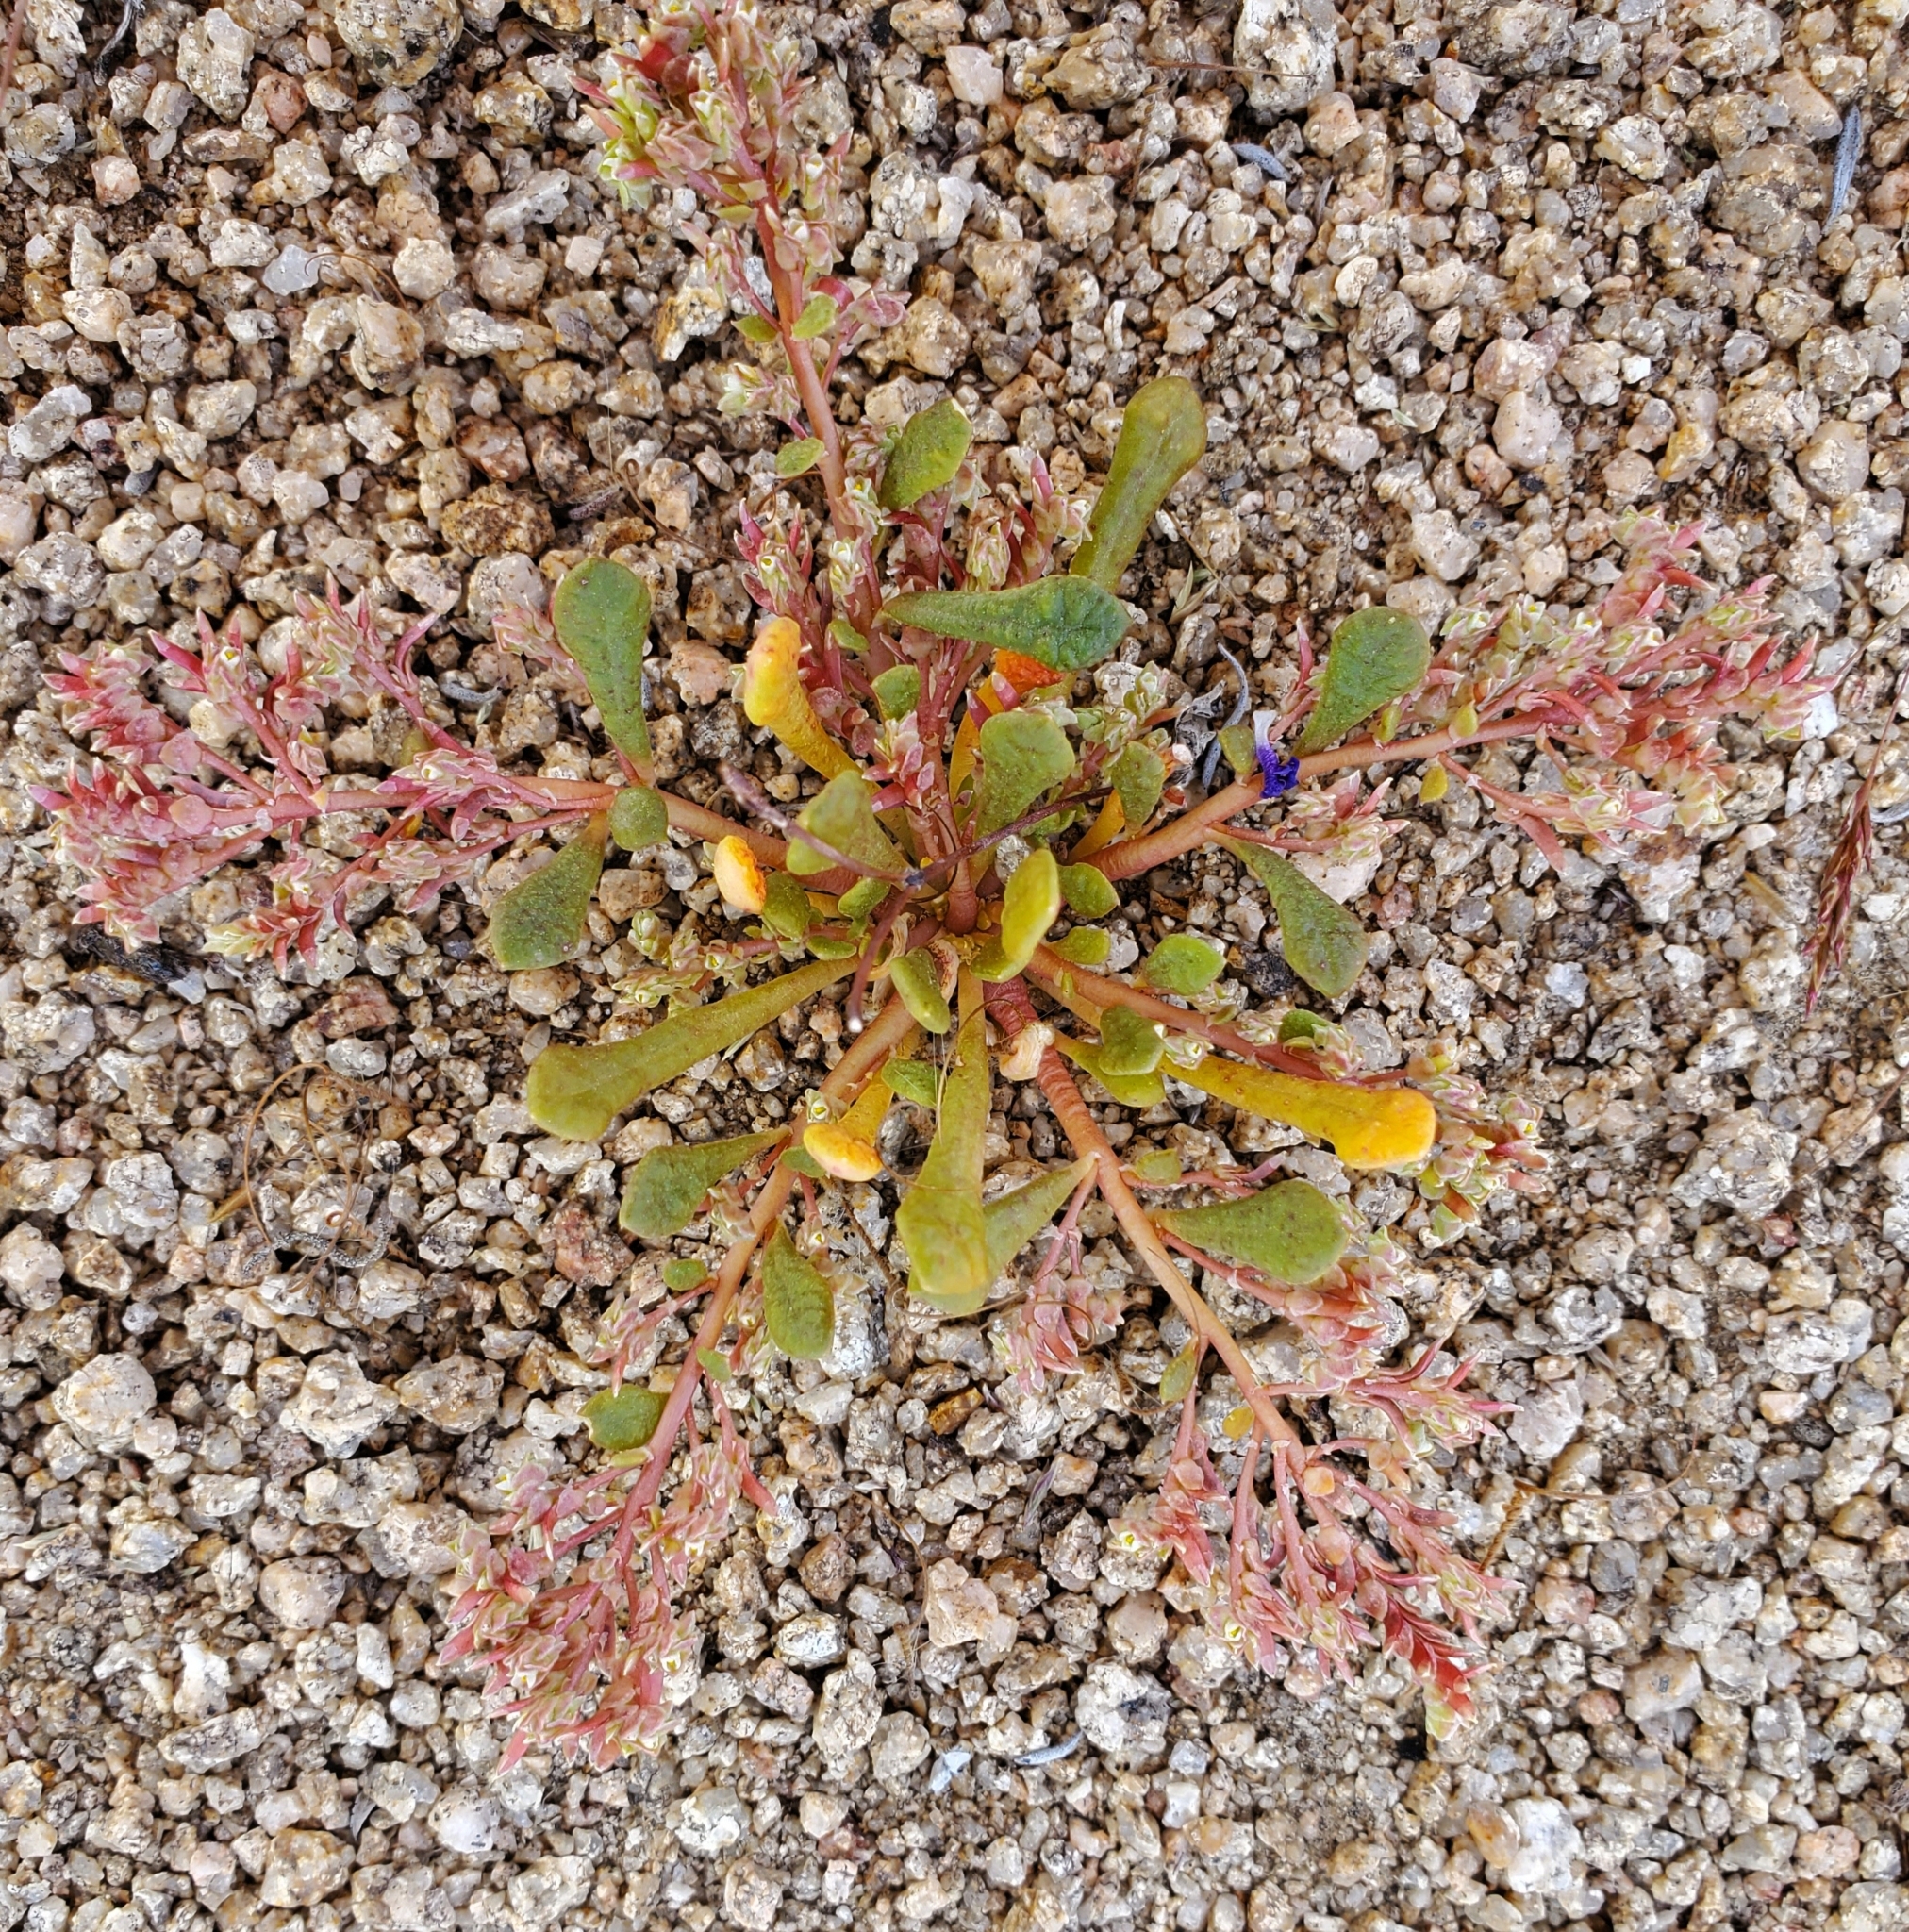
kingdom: Plantae
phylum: Tracheophyta
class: Magnoliopsida
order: Caryophyllales
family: Montiaceae
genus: Calyptridium
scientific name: Calyptridium monandrum
